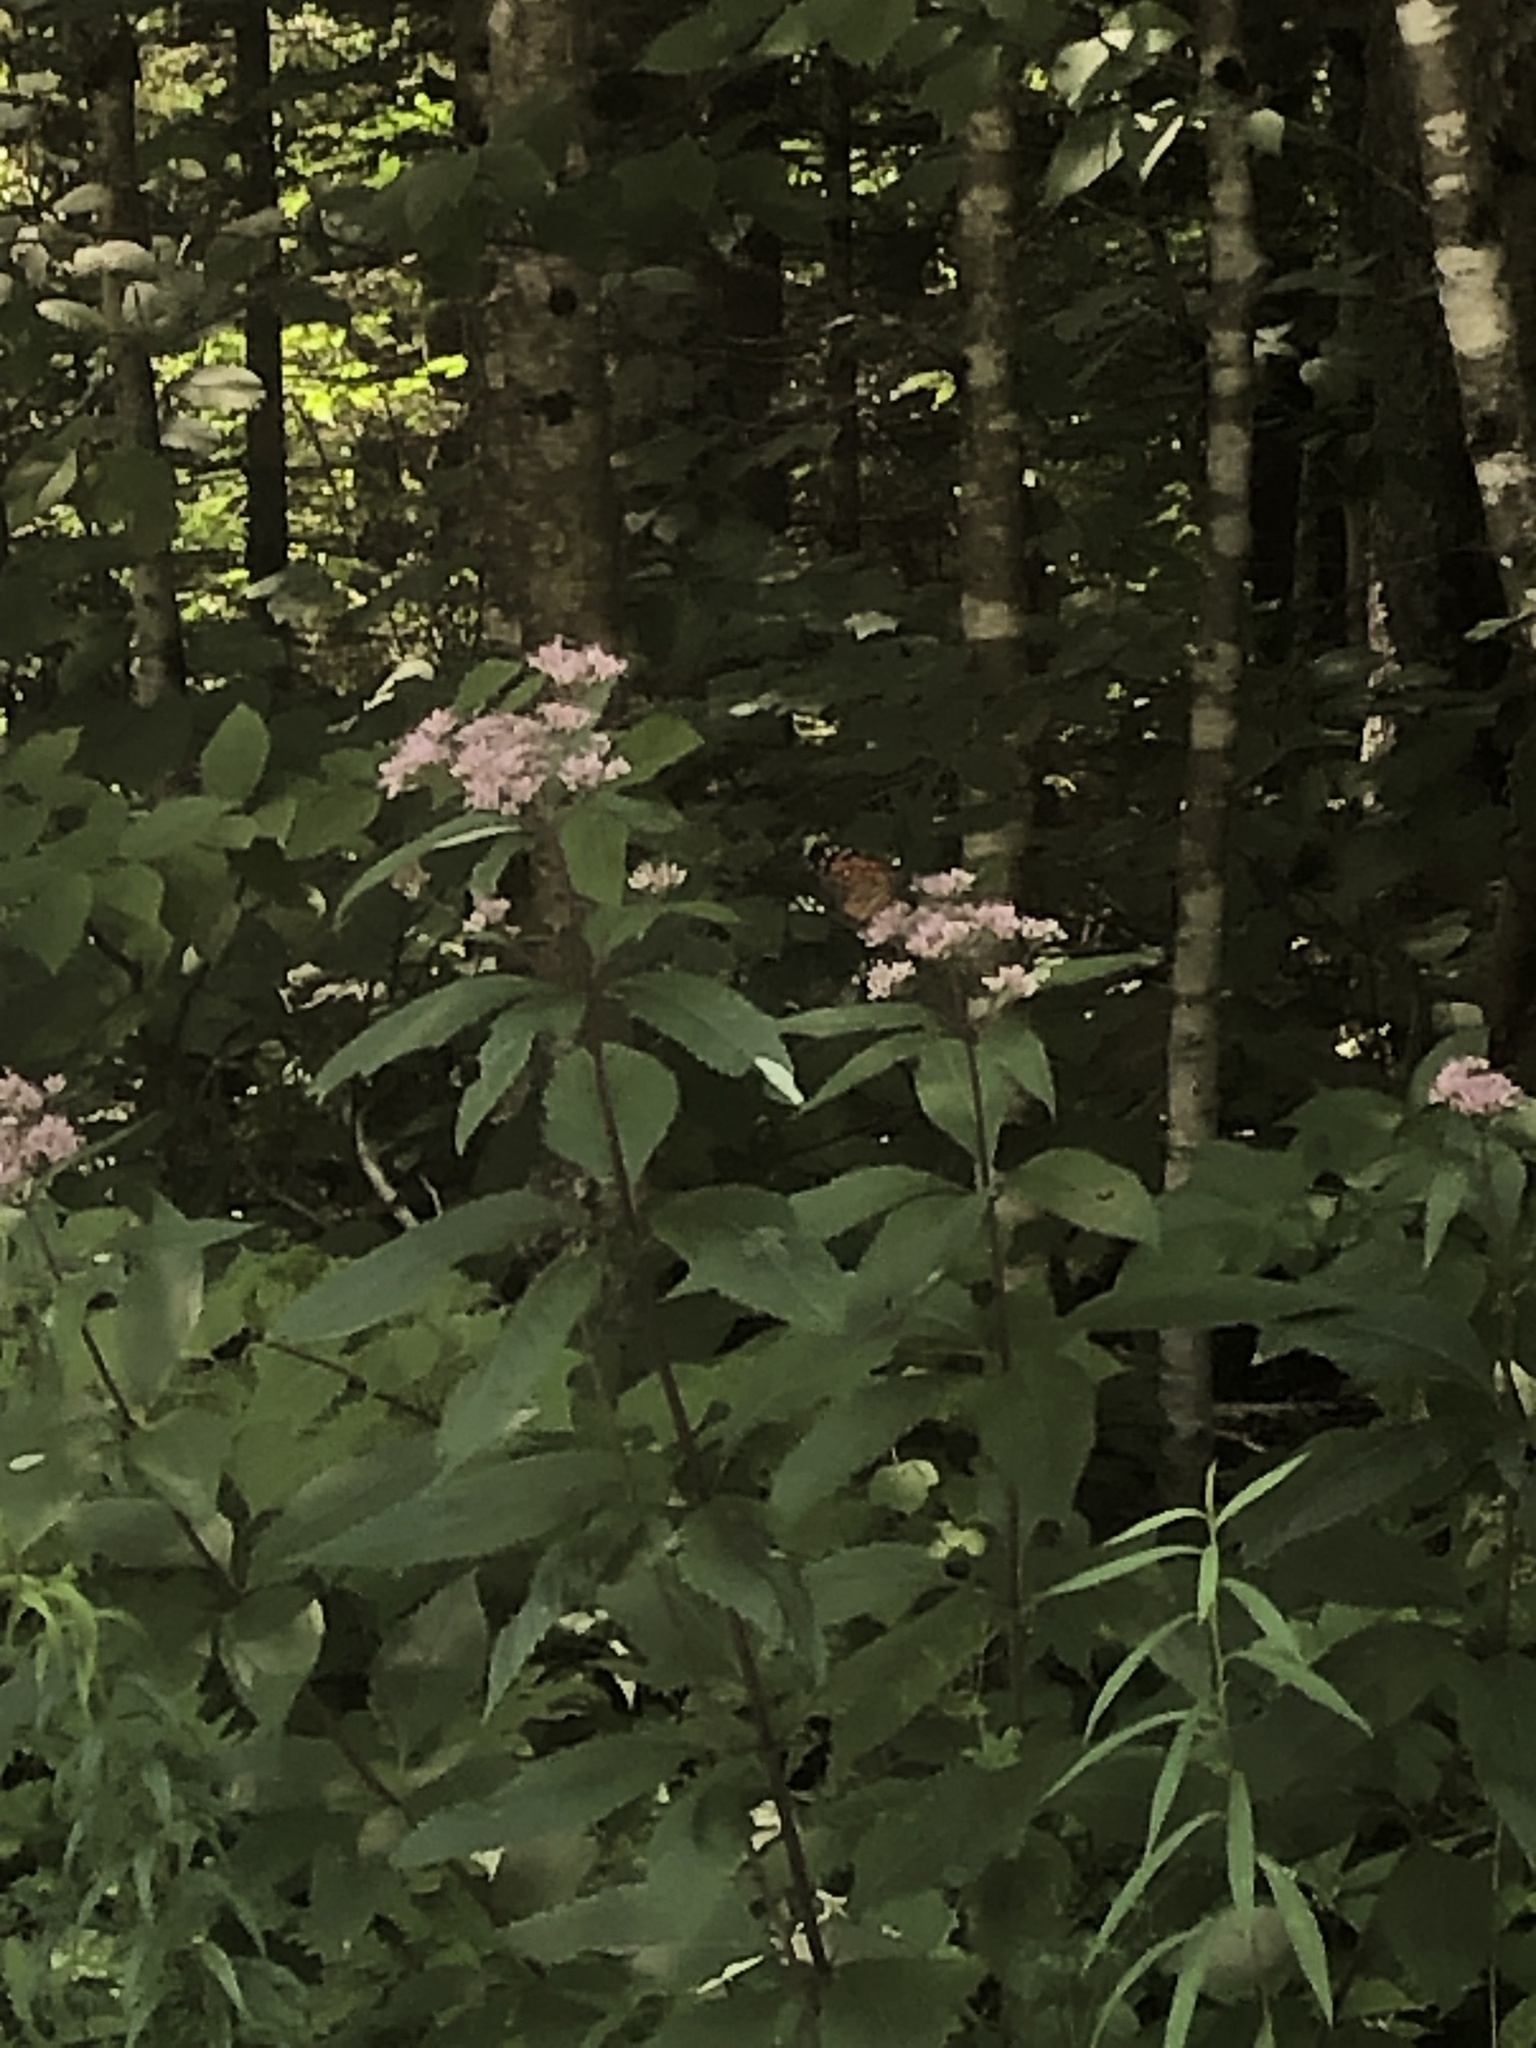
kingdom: Animalia
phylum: Arthropoda
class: Insecta
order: Lepidoptera
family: Nymphalidae
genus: Danaus
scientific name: Danaus plexippus
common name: Monarch
